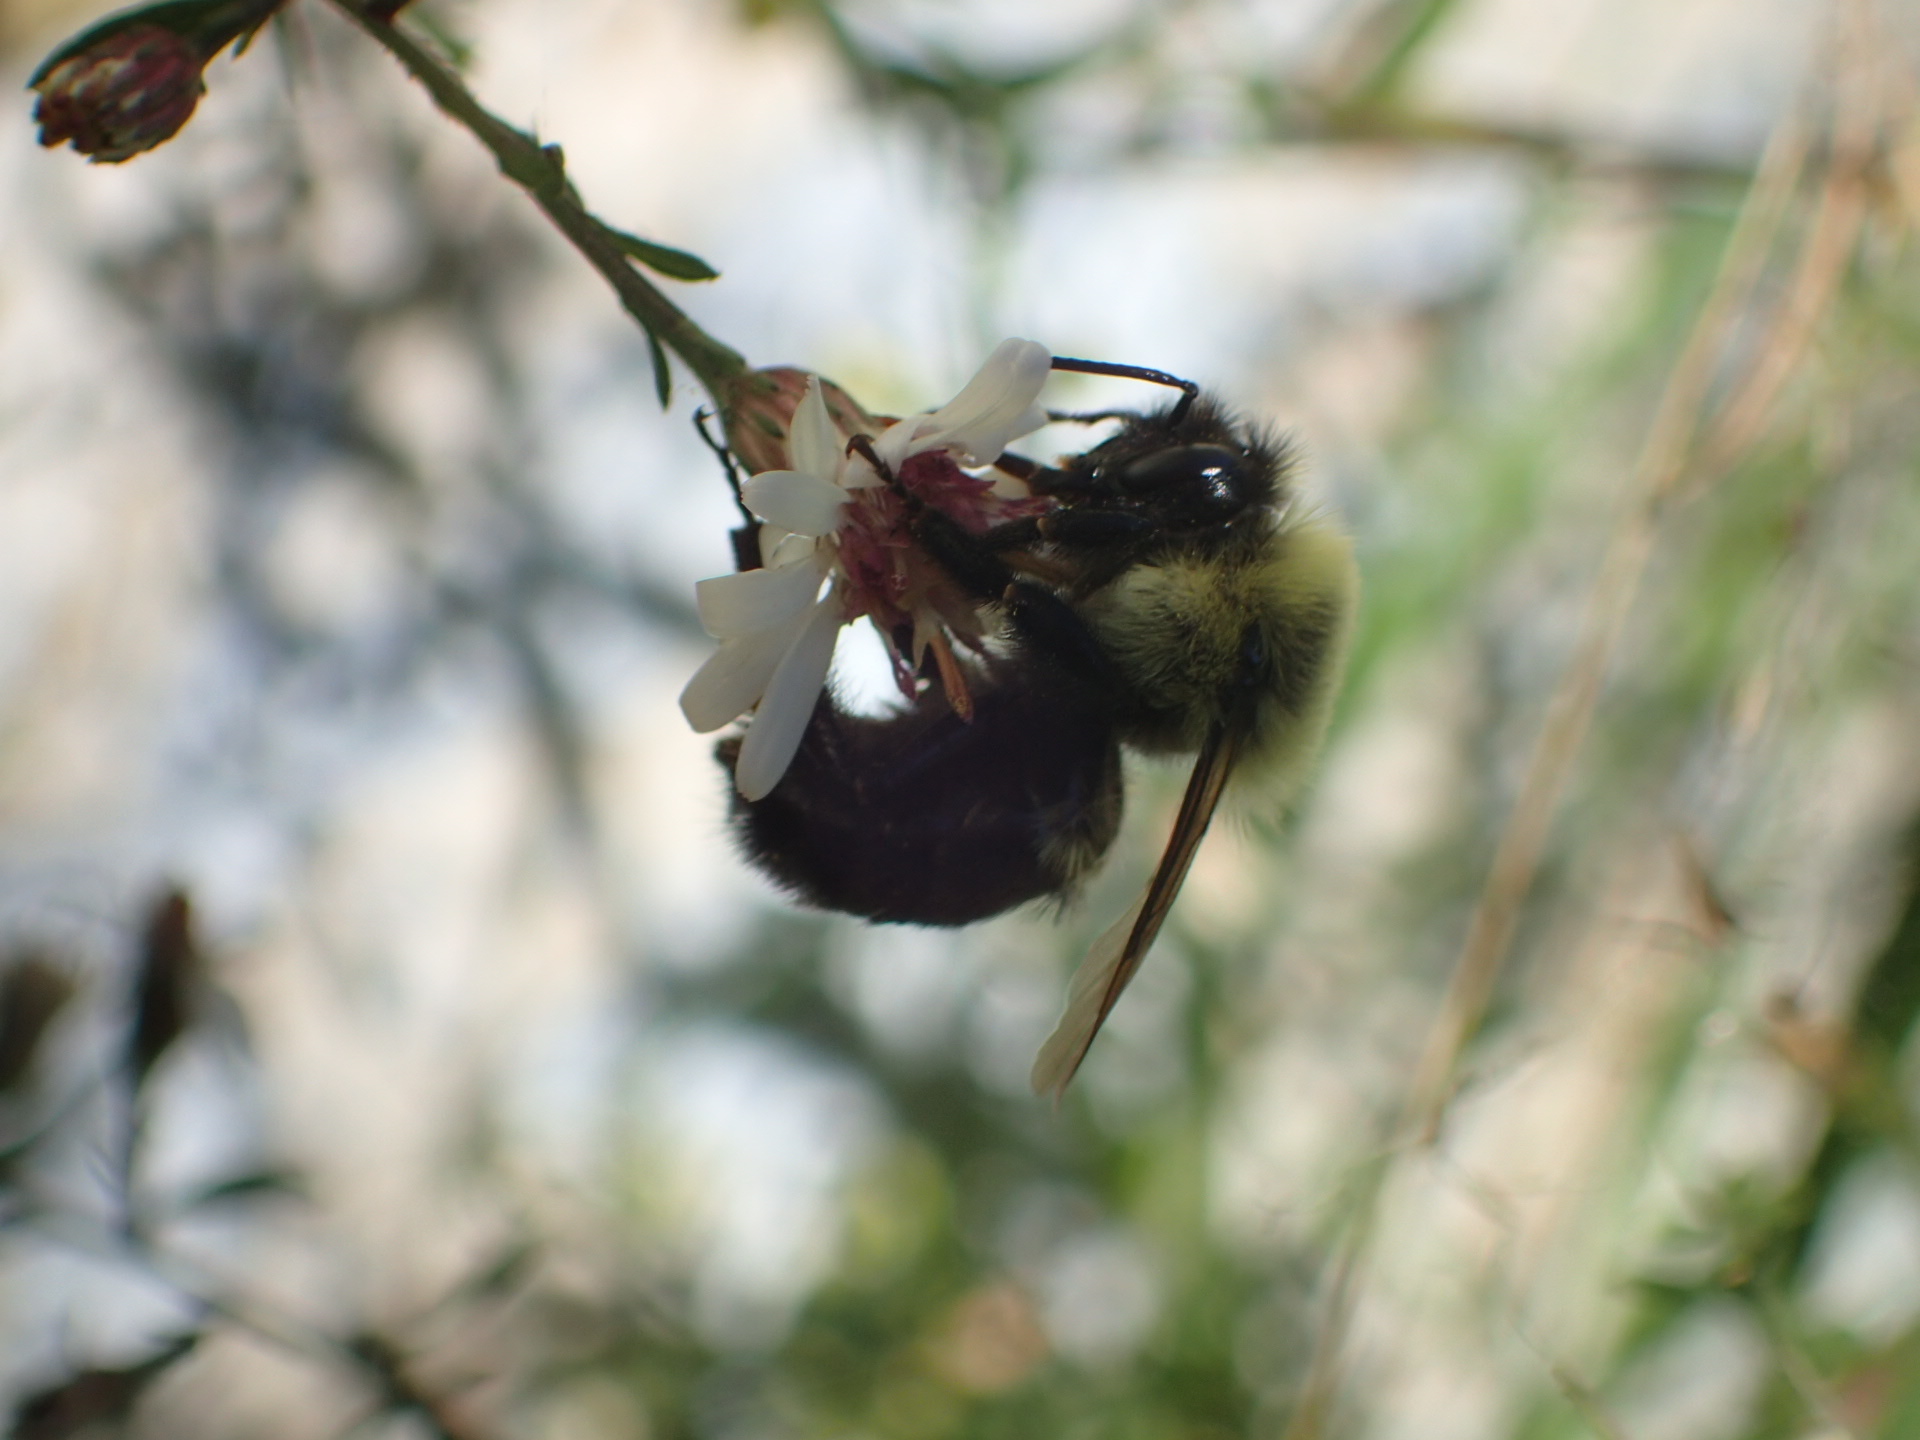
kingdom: Animalia
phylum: Arthropoda
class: Insecta
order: Hymenoptera
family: Apidae
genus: Bombus
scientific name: Bombus impatiens
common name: Common eastern bumble bee
